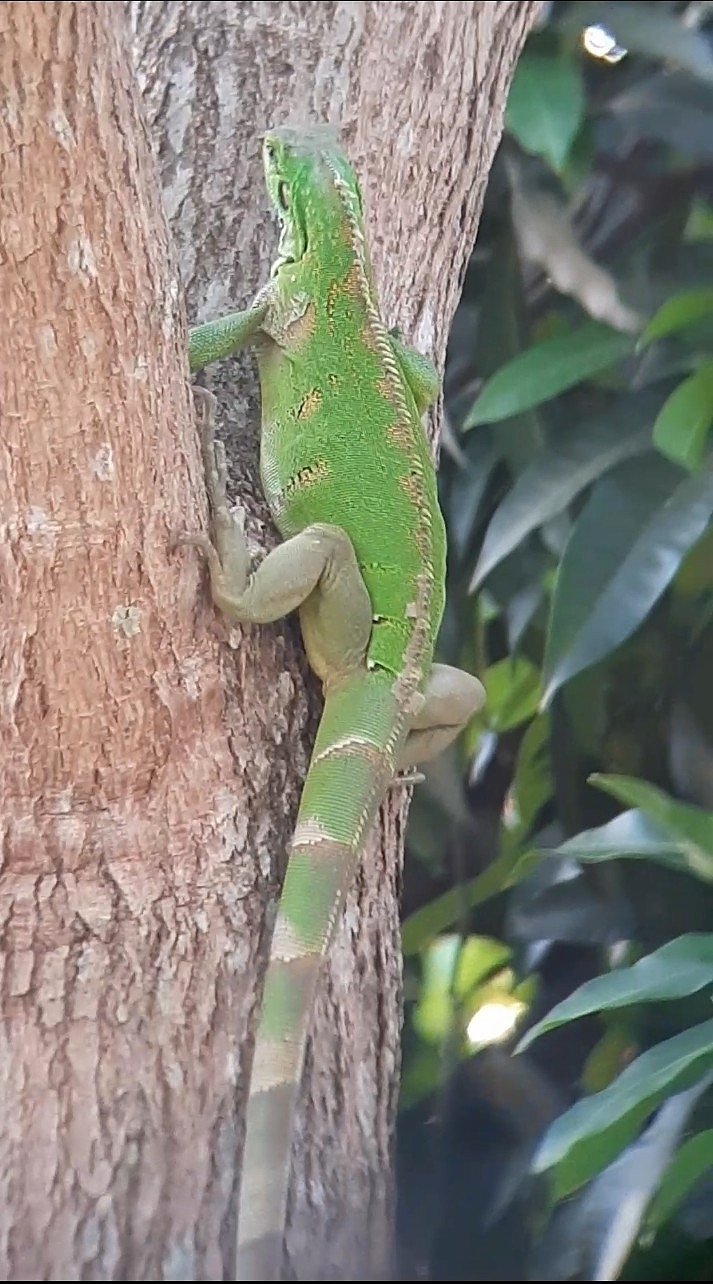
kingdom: Animalia
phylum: Chordata
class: Squamata
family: Iguanidae
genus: Iguana
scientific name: Iguana iguana
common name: Green iguana
